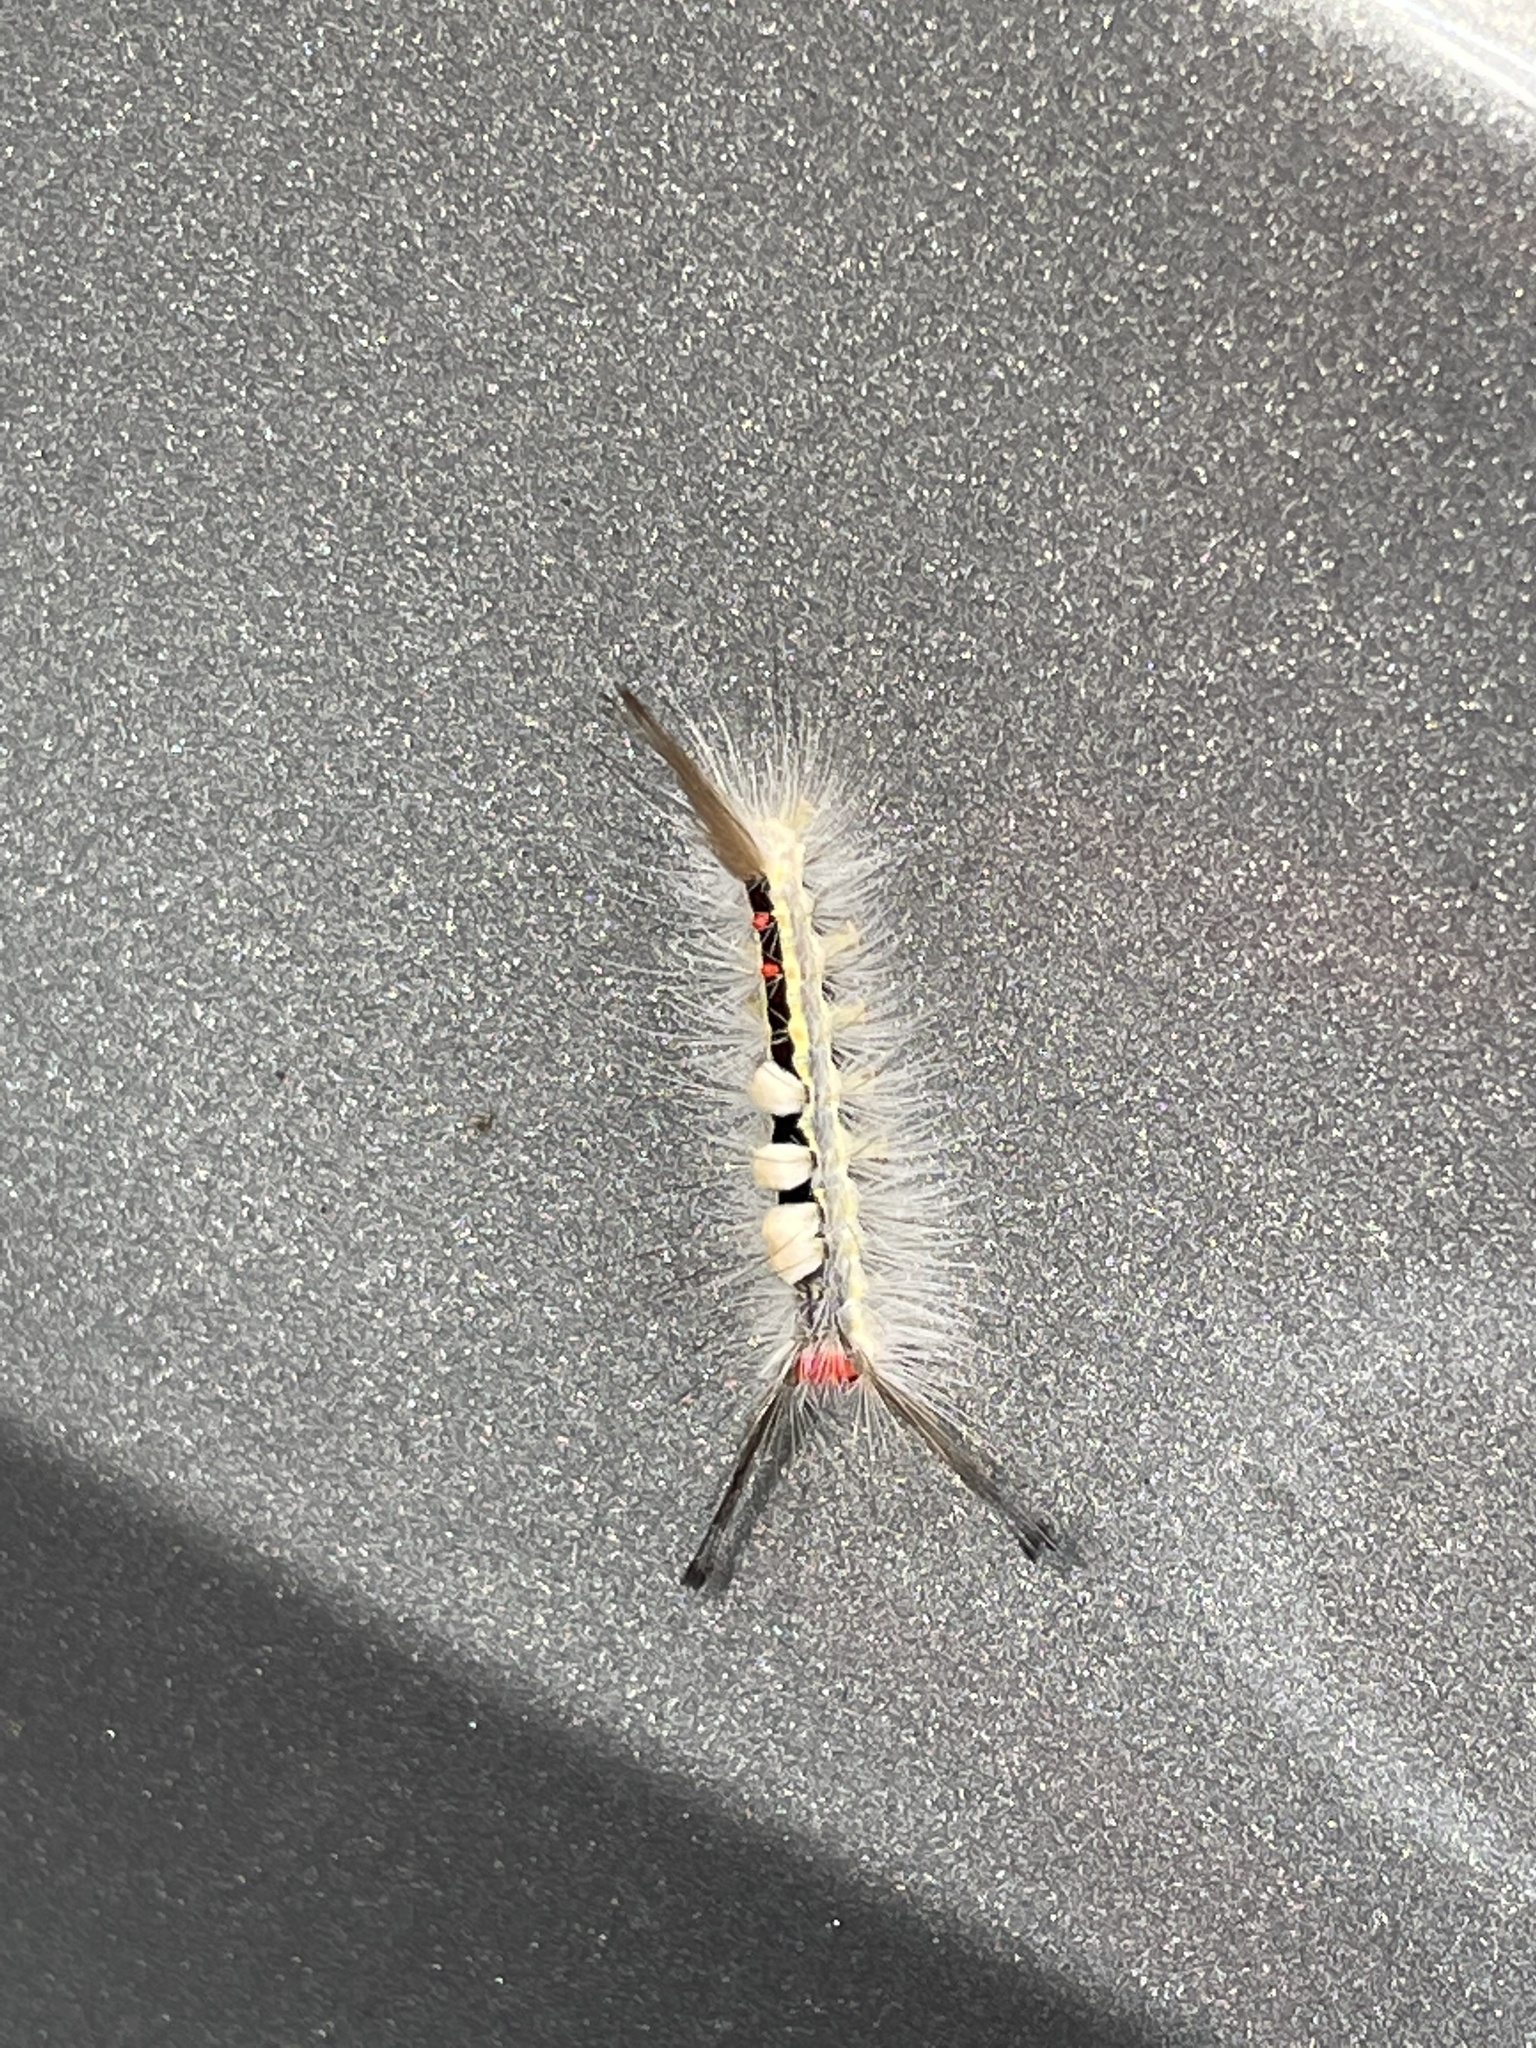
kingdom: Animalia
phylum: Arthropoda
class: Insecta
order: Lepidoptera
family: Erebidae
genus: Orgyia
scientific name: Orgyia leucostigma
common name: White-marked tussock moth
